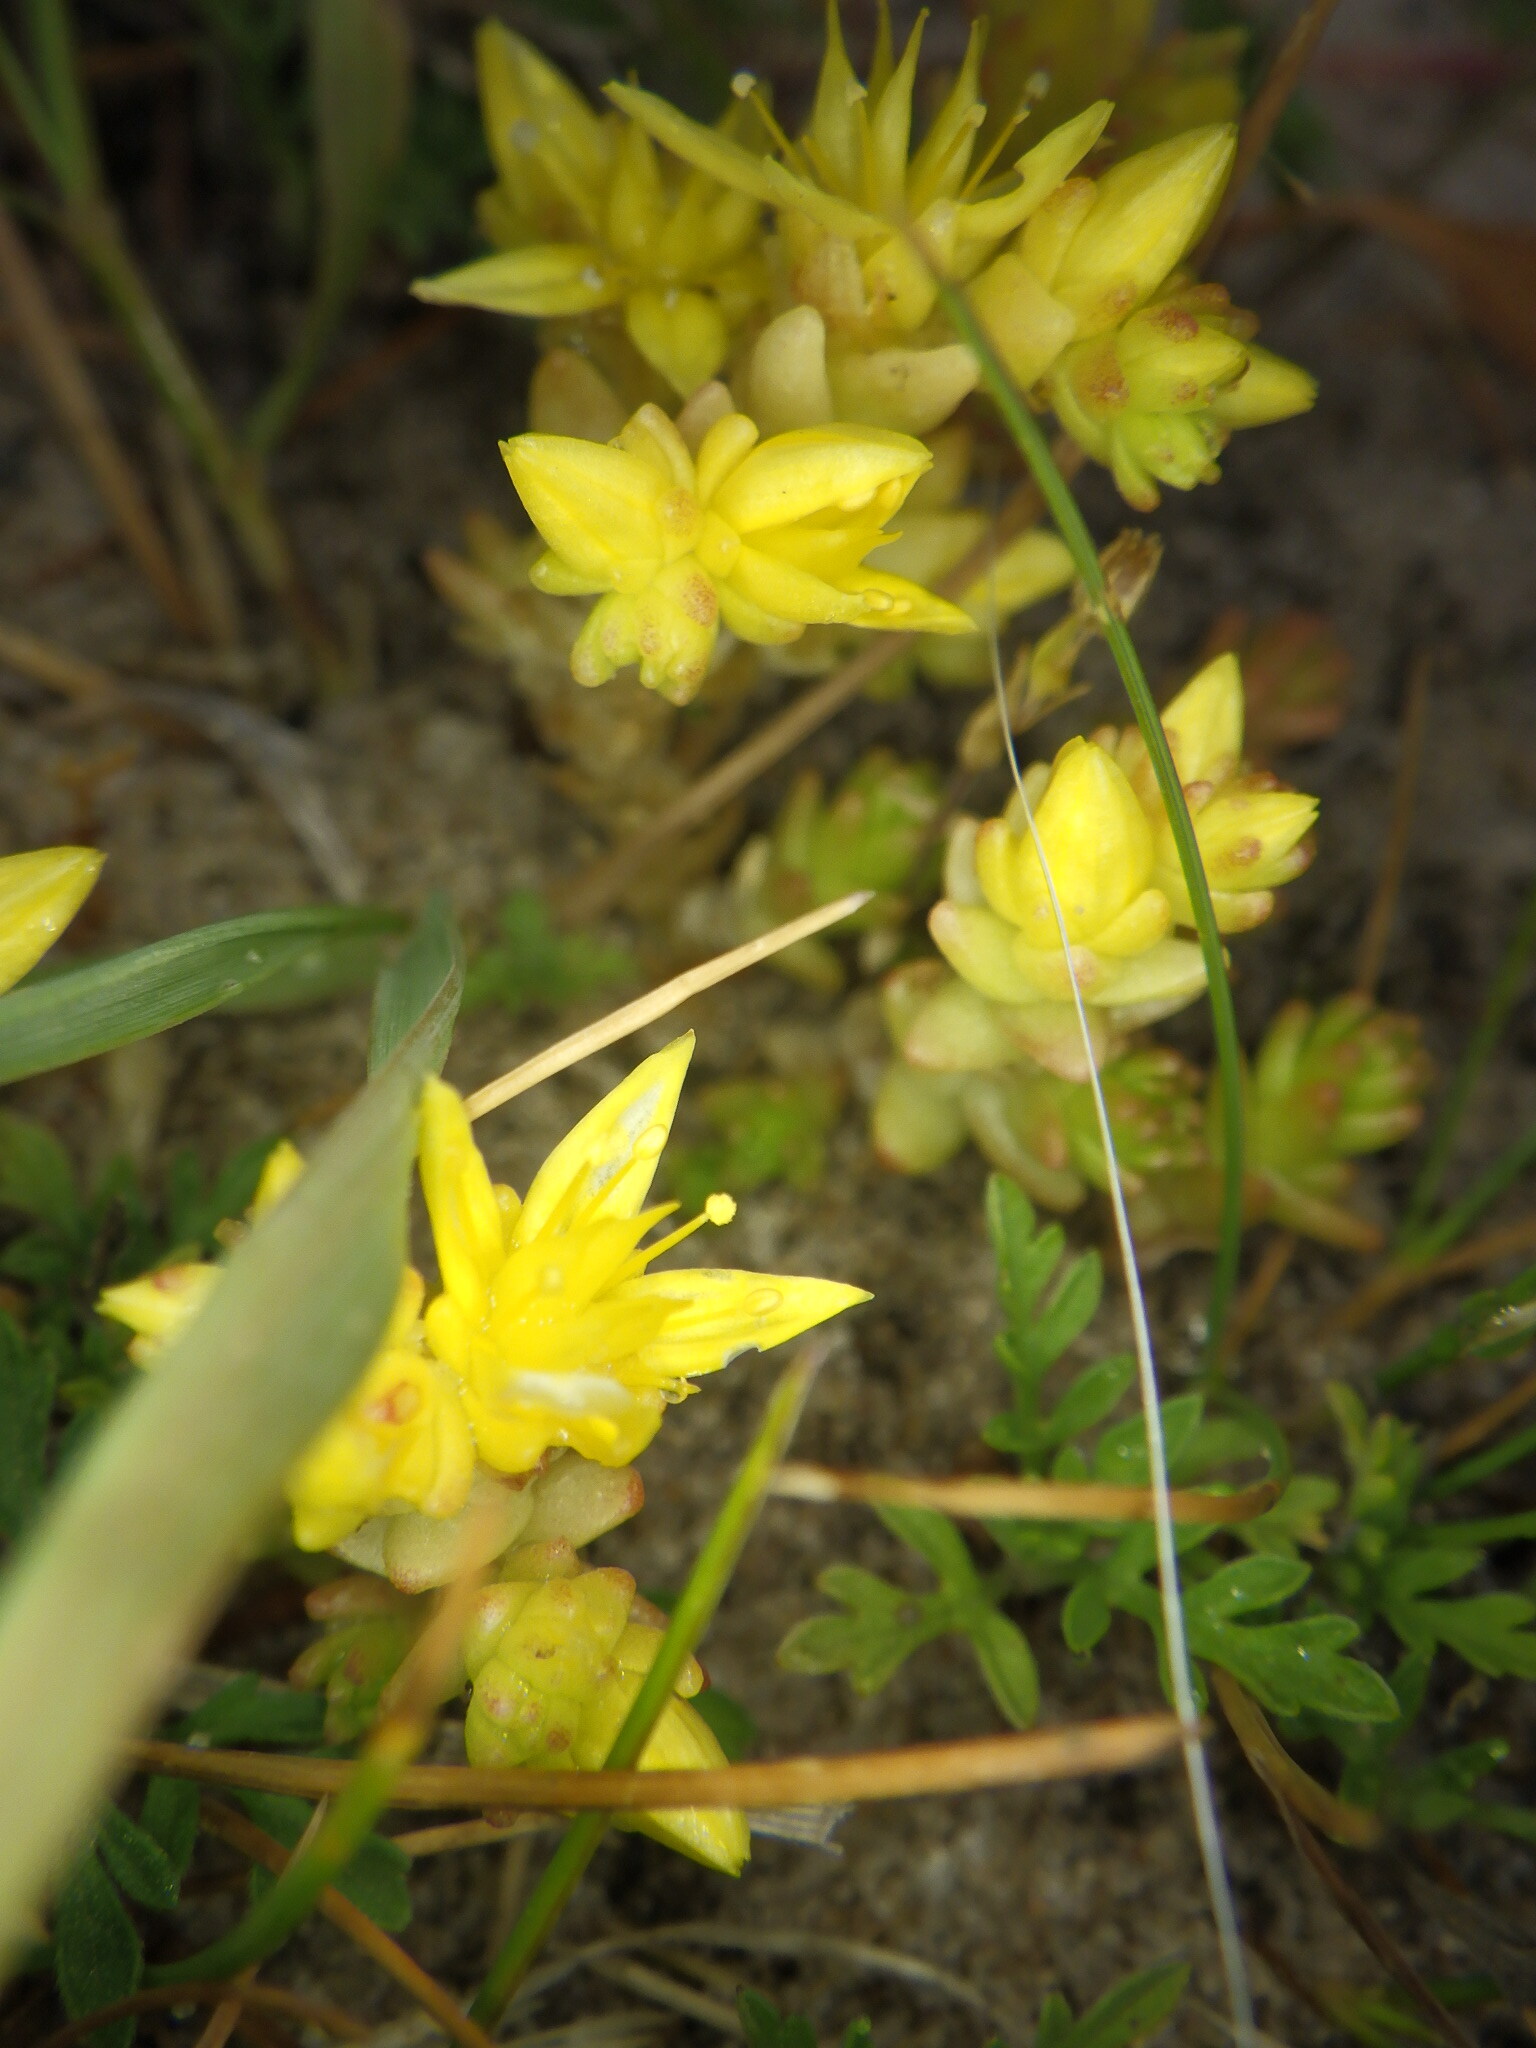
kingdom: Plantae
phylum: Tracheophyta
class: Magnoliopsida
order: Saxifragales
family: Crassulaceae
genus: Sedum
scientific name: Sedum acre
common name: Biting stonecrop
